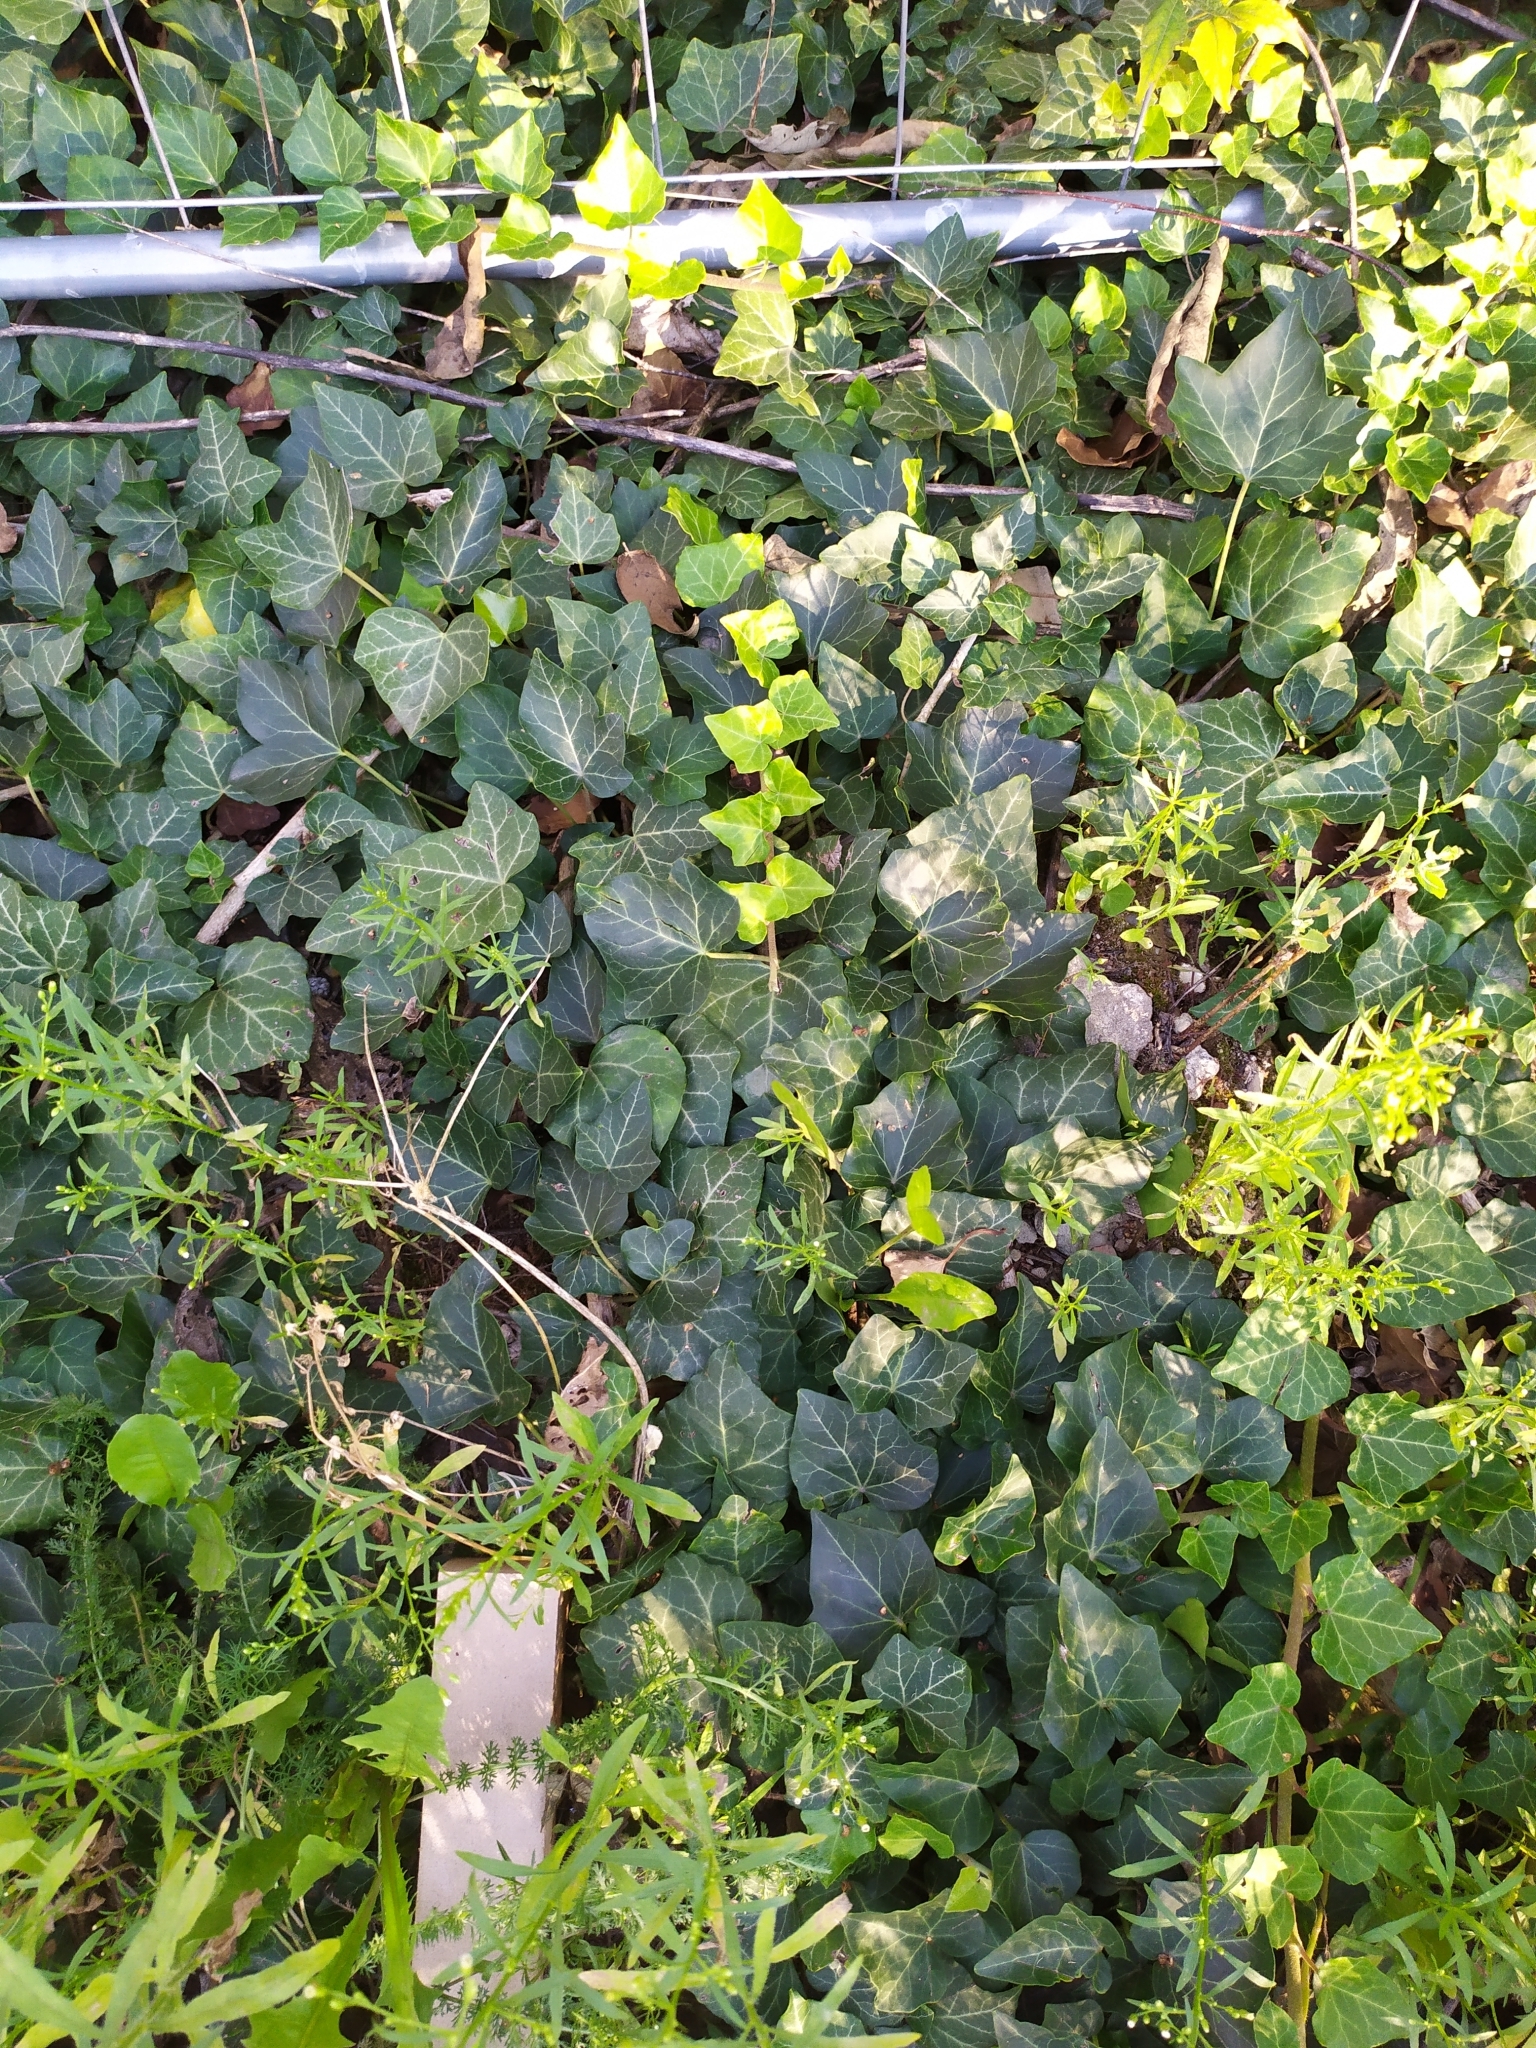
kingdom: Plantae
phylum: Tracheophyta
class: Magnoliopsida
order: Apiales
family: Araliaceae
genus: Hedera
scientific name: Hedera helix
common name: Ivy
